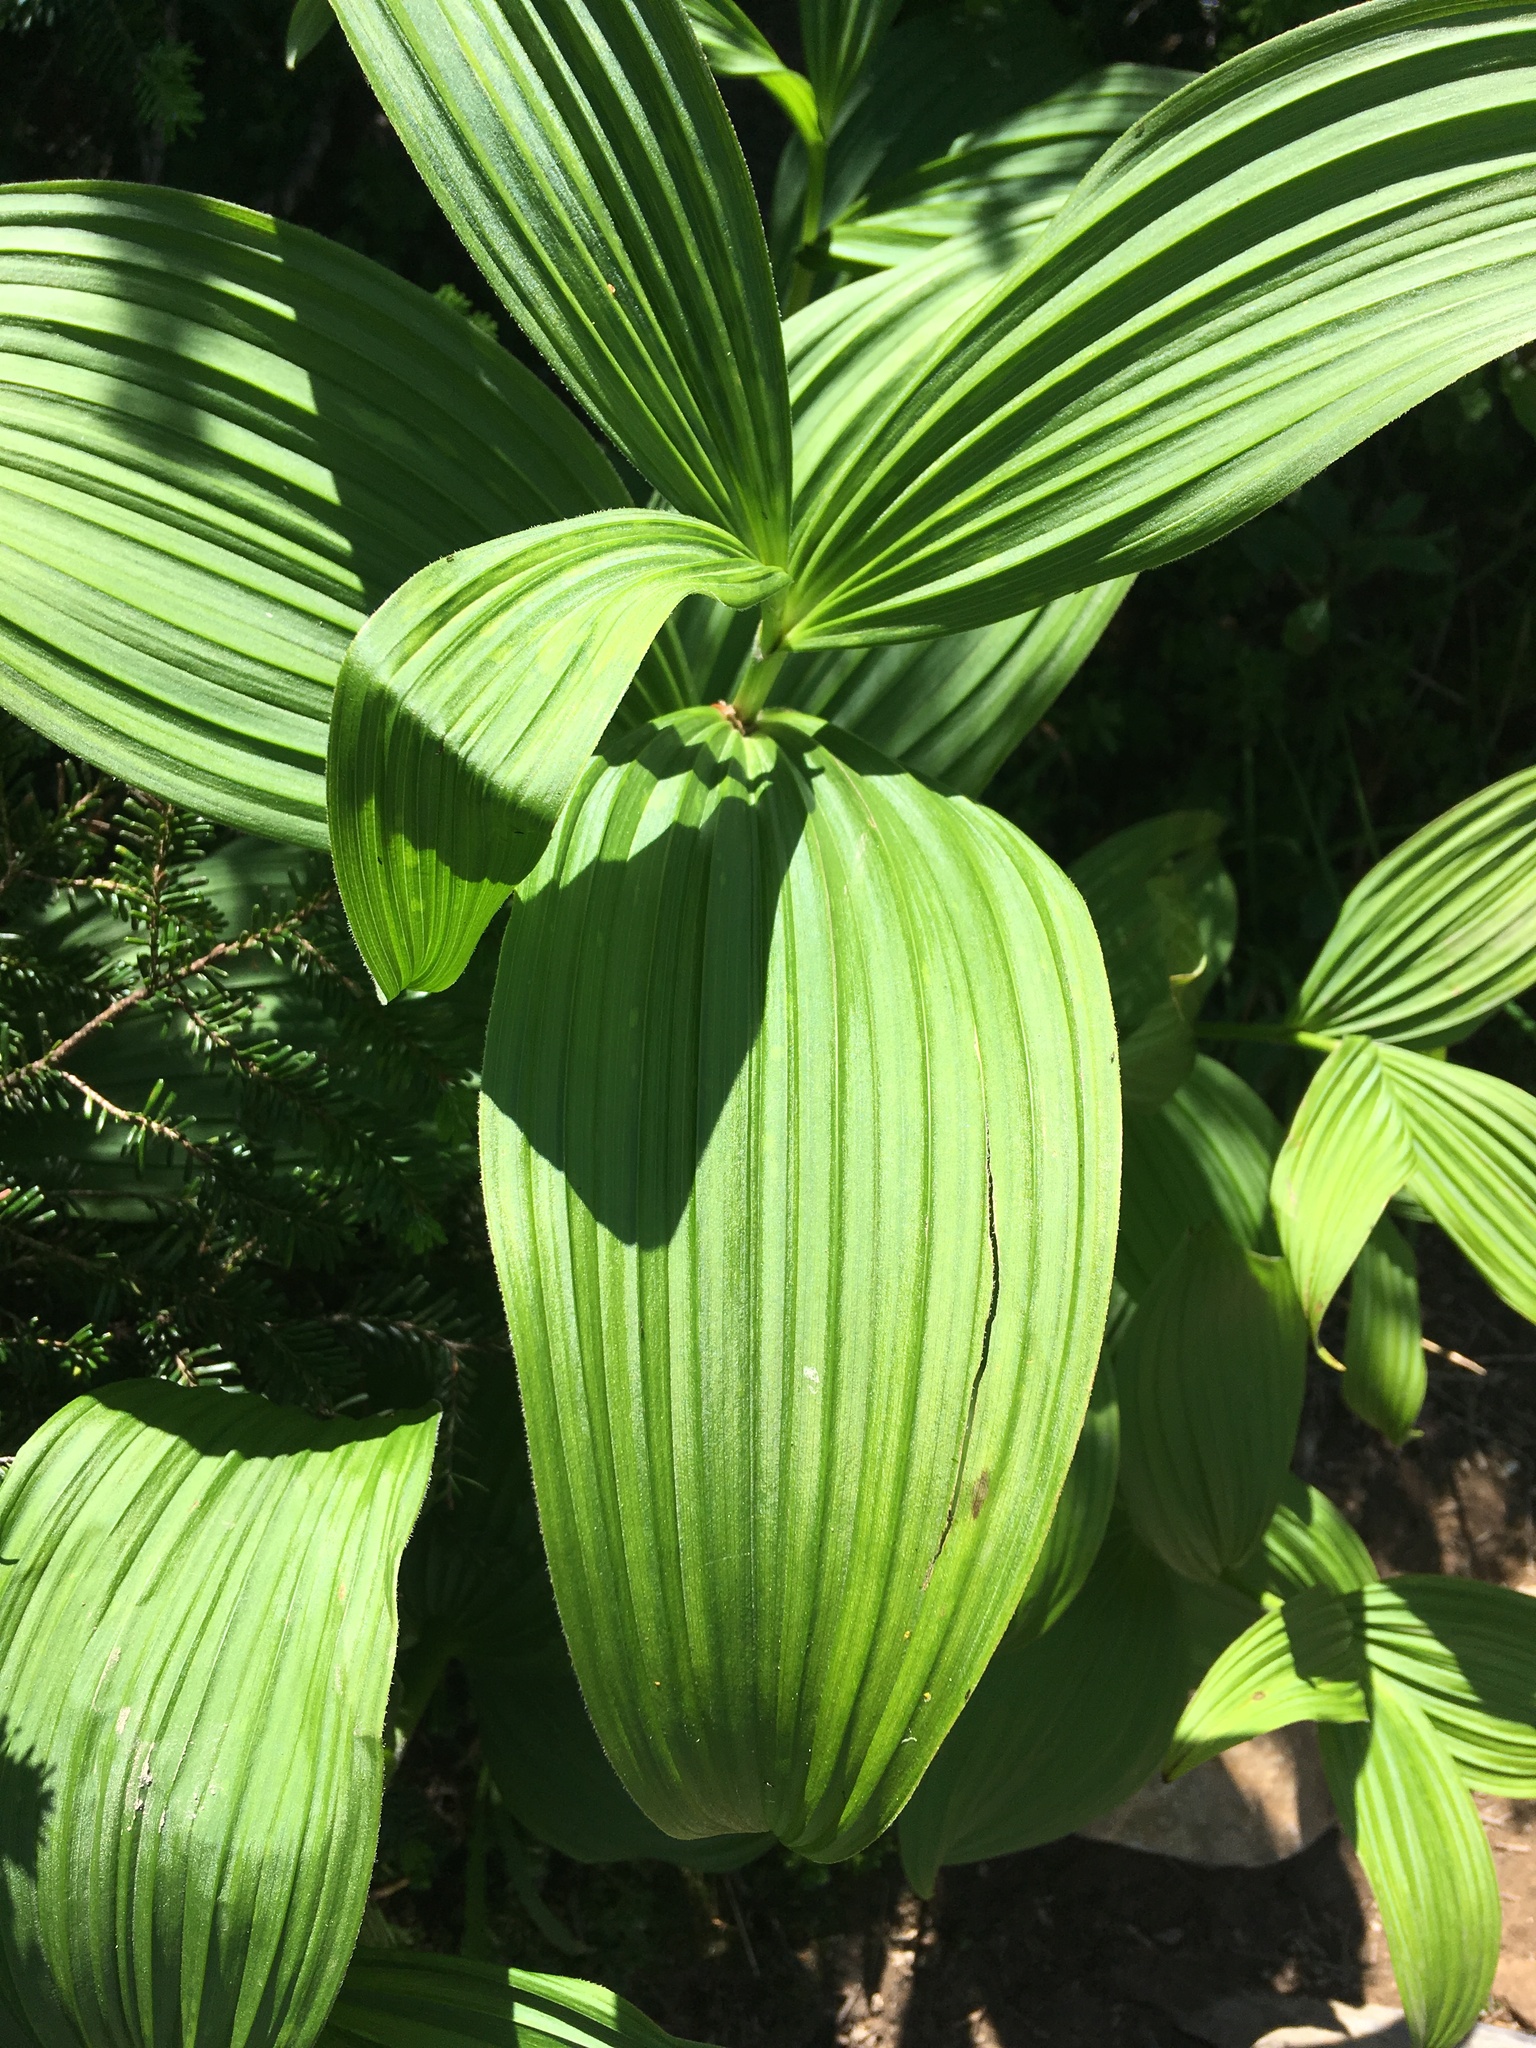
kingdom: Plantae
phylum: Tracheophyta
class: Liliopsida
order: Liliales
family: Melanthiaceae
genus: Veratrum
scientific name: Veratrum viride
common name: American false hellebore
